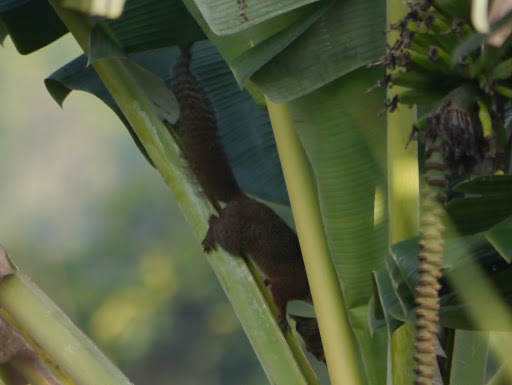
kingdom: Animalia
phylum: Chordata
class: Mammalia
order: Rodentia
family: Sciuridae
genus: Heliosciurus
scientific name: Heliosciurus rufobrachium
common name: Red-legged sun squirrel
